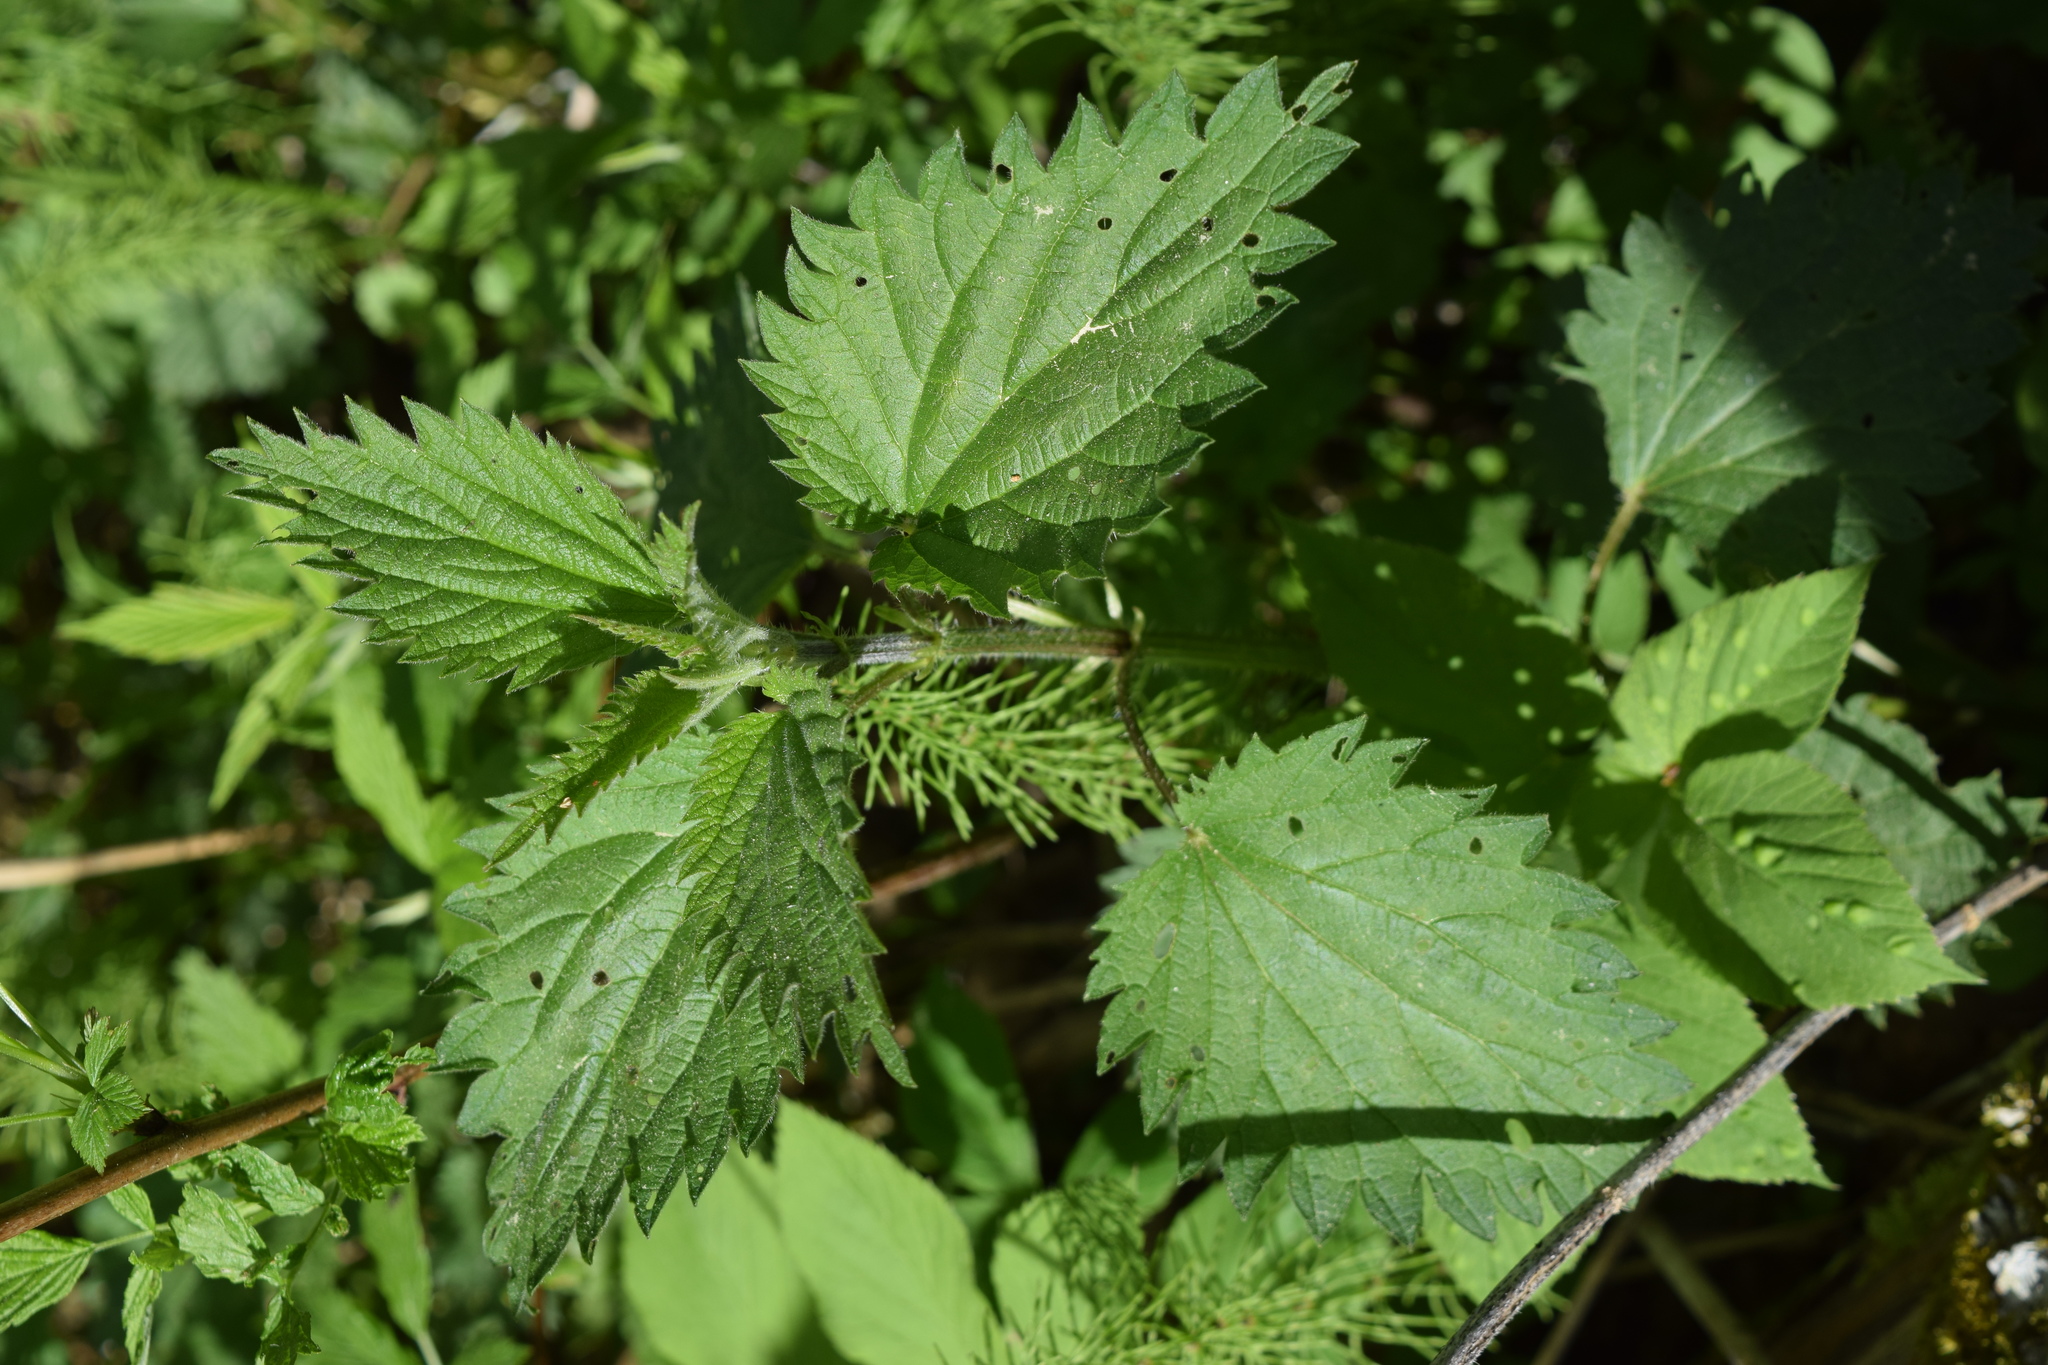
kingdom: Plantae
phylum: Tracheophyta
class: Magnoliopsida
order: Rosales
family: Urticaceae
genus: Urtica
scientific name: Urtica dioica
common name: Common nettle
